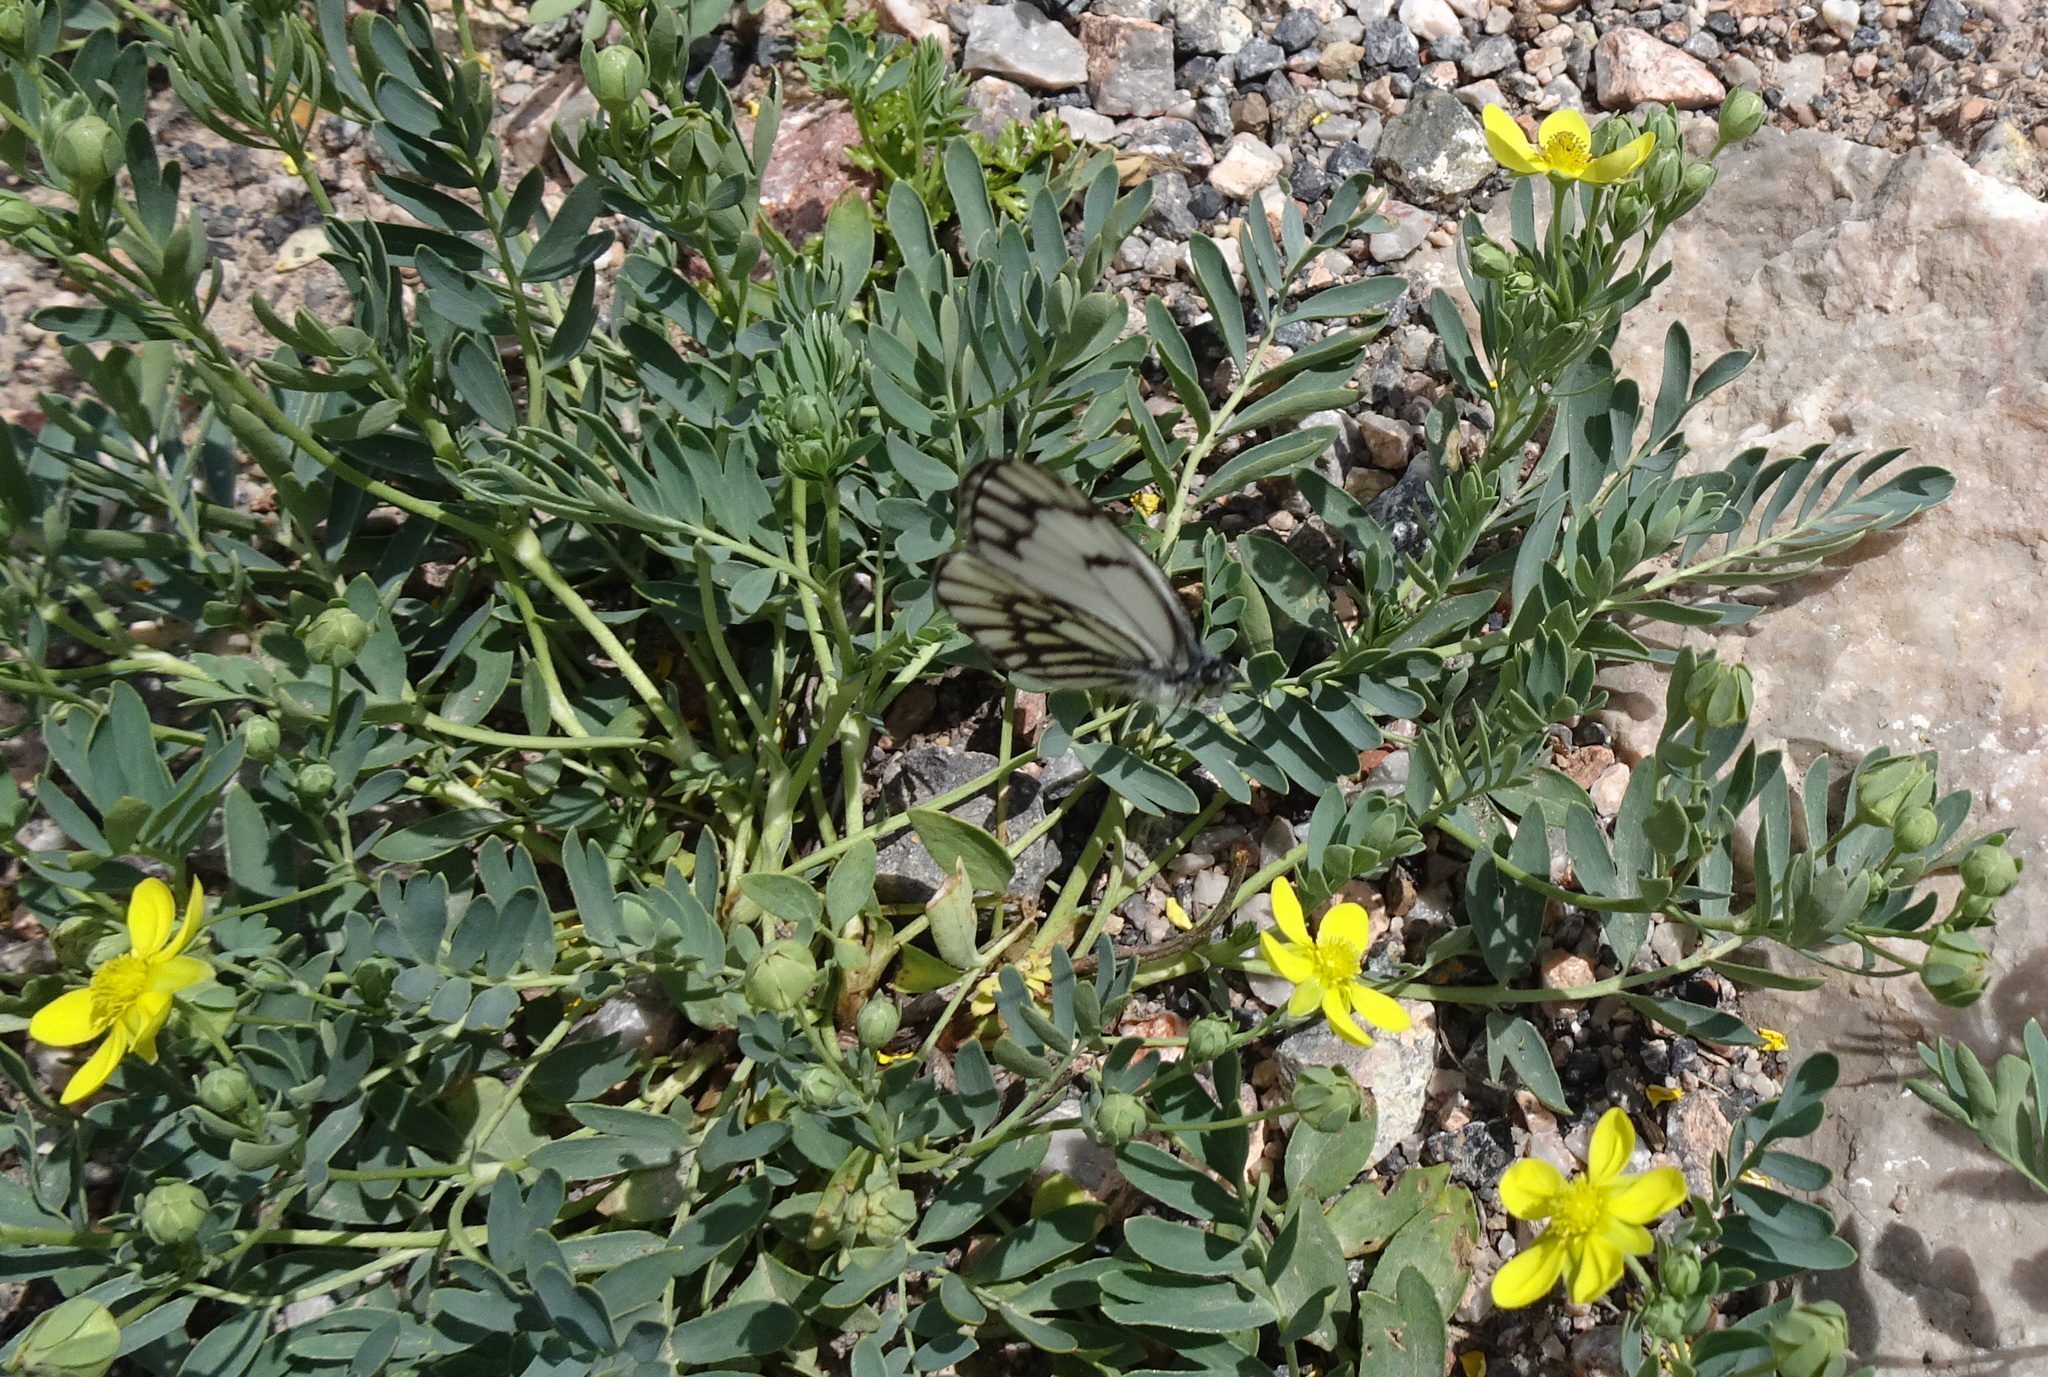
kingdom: Plantae
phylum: Tracheophyta
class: Magnoliopsida
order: Rosales
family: Rosaceae
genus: Sibbaldianthe
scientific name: Sibbaldianthe bifurca
